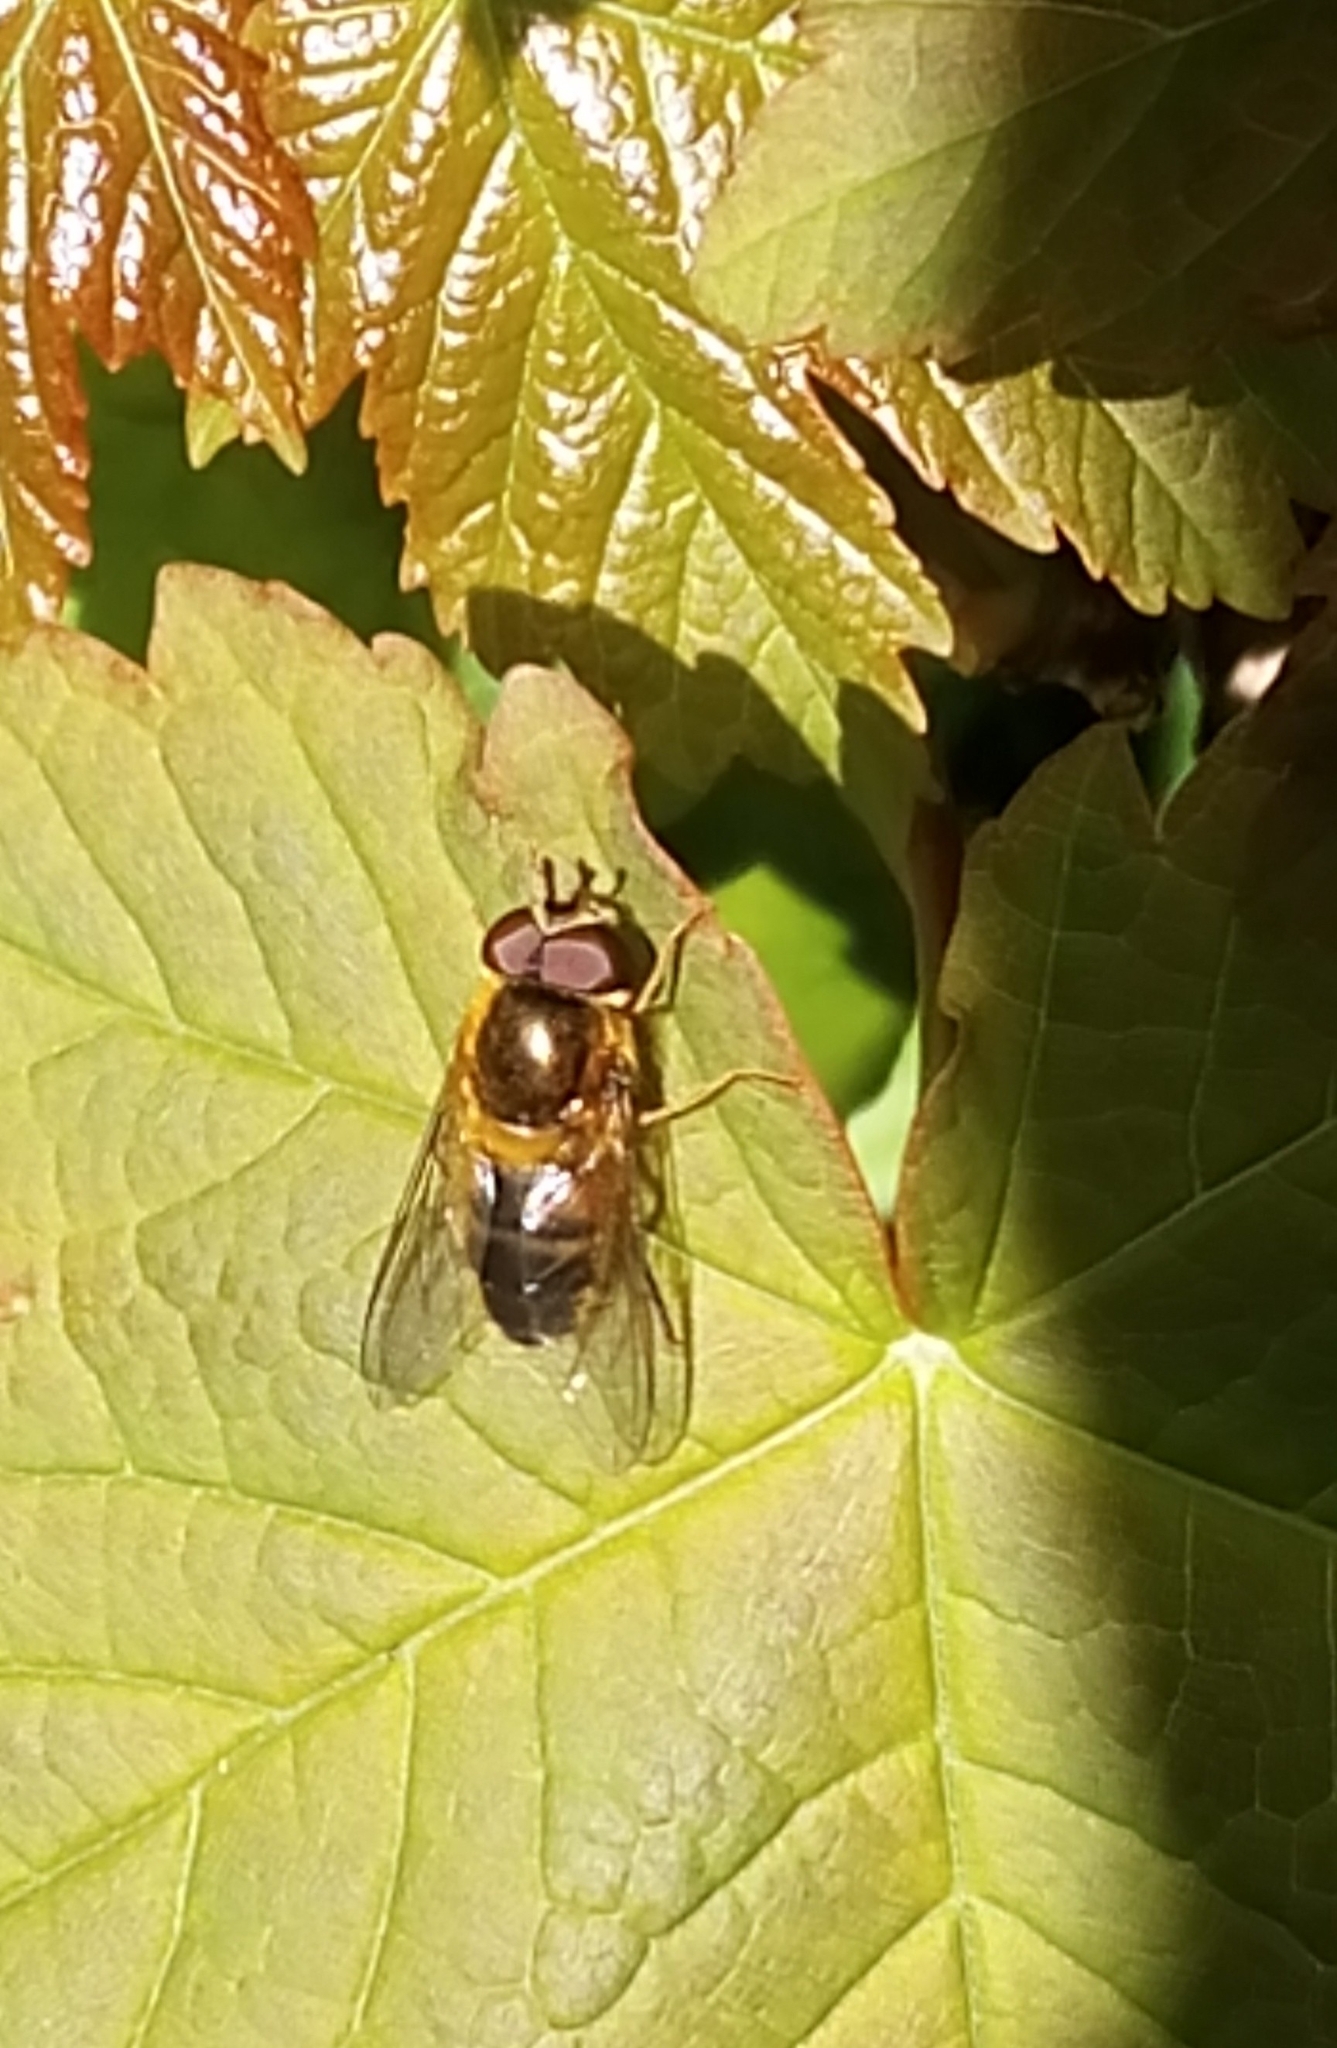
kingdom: Animalia
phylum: Arthropoda
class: Insecta
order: Diptera
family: Syrphidae
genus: Epistrophe
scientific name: Epistrophe eligans
